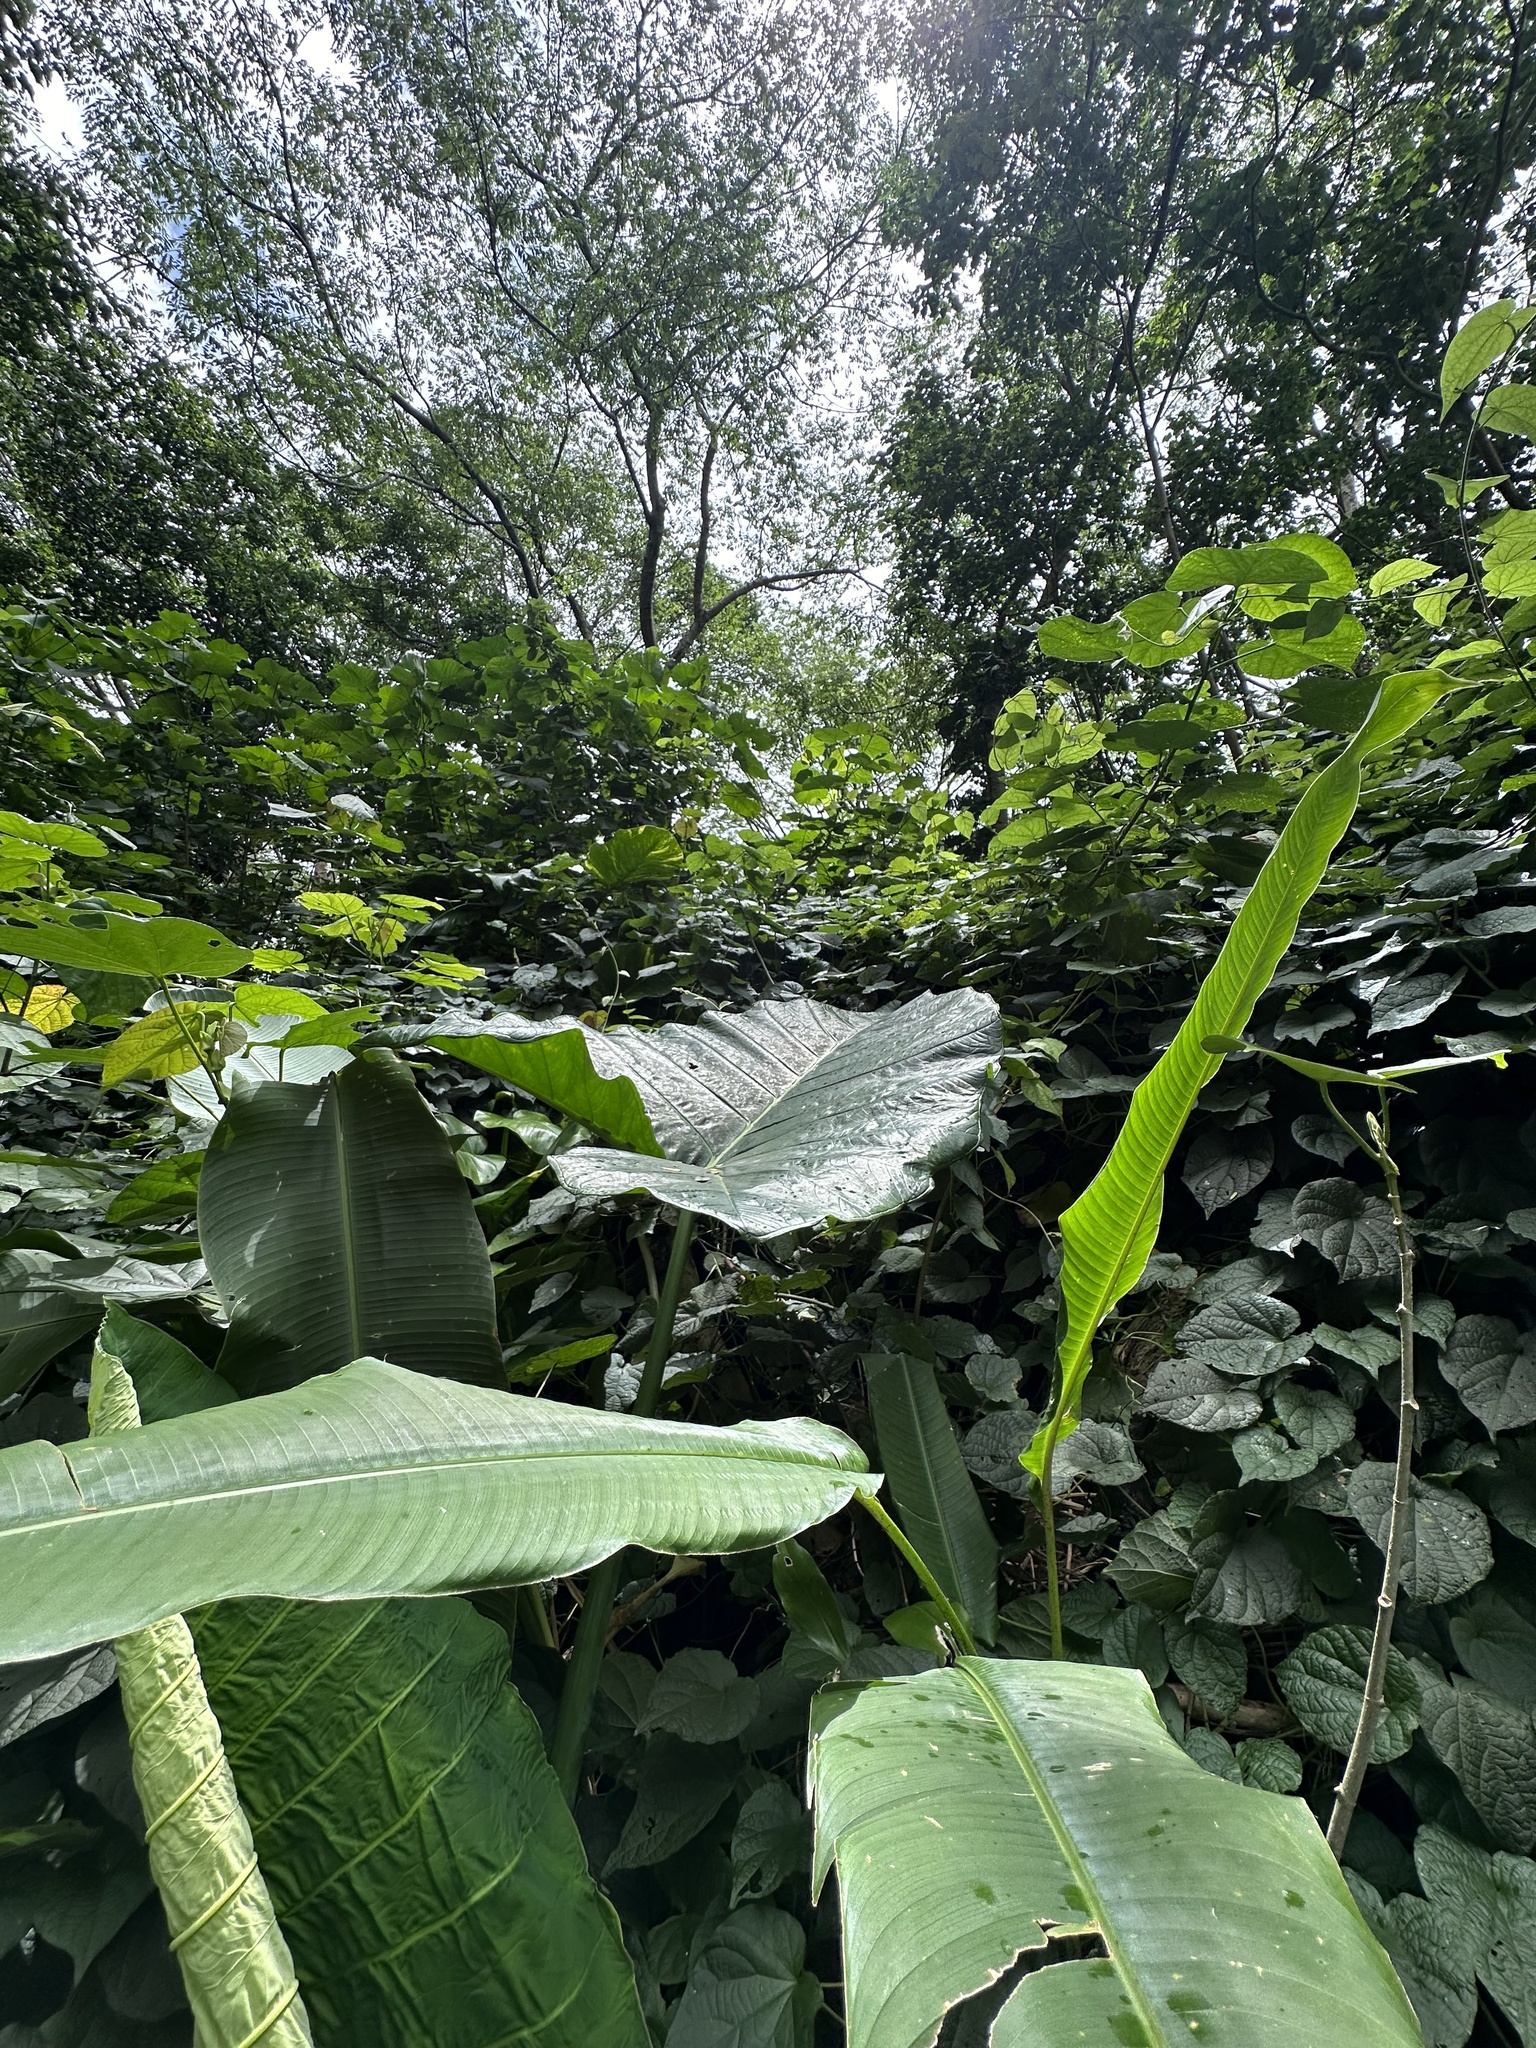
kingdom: Plantae
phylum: Tracheophyta
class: Liliopsida
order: Alismatales
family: Araceae
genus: Xanthosoma
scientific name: Xanthosoma robustum
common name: Capote
